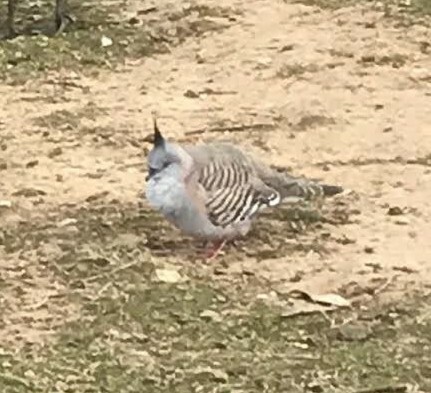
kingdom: Animalia
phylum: Chordata
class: Aves
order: Columbiformes
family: Columbidae
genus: Ocyphaps
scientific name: Ocyphaps lophotes
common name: Crested pigeon
